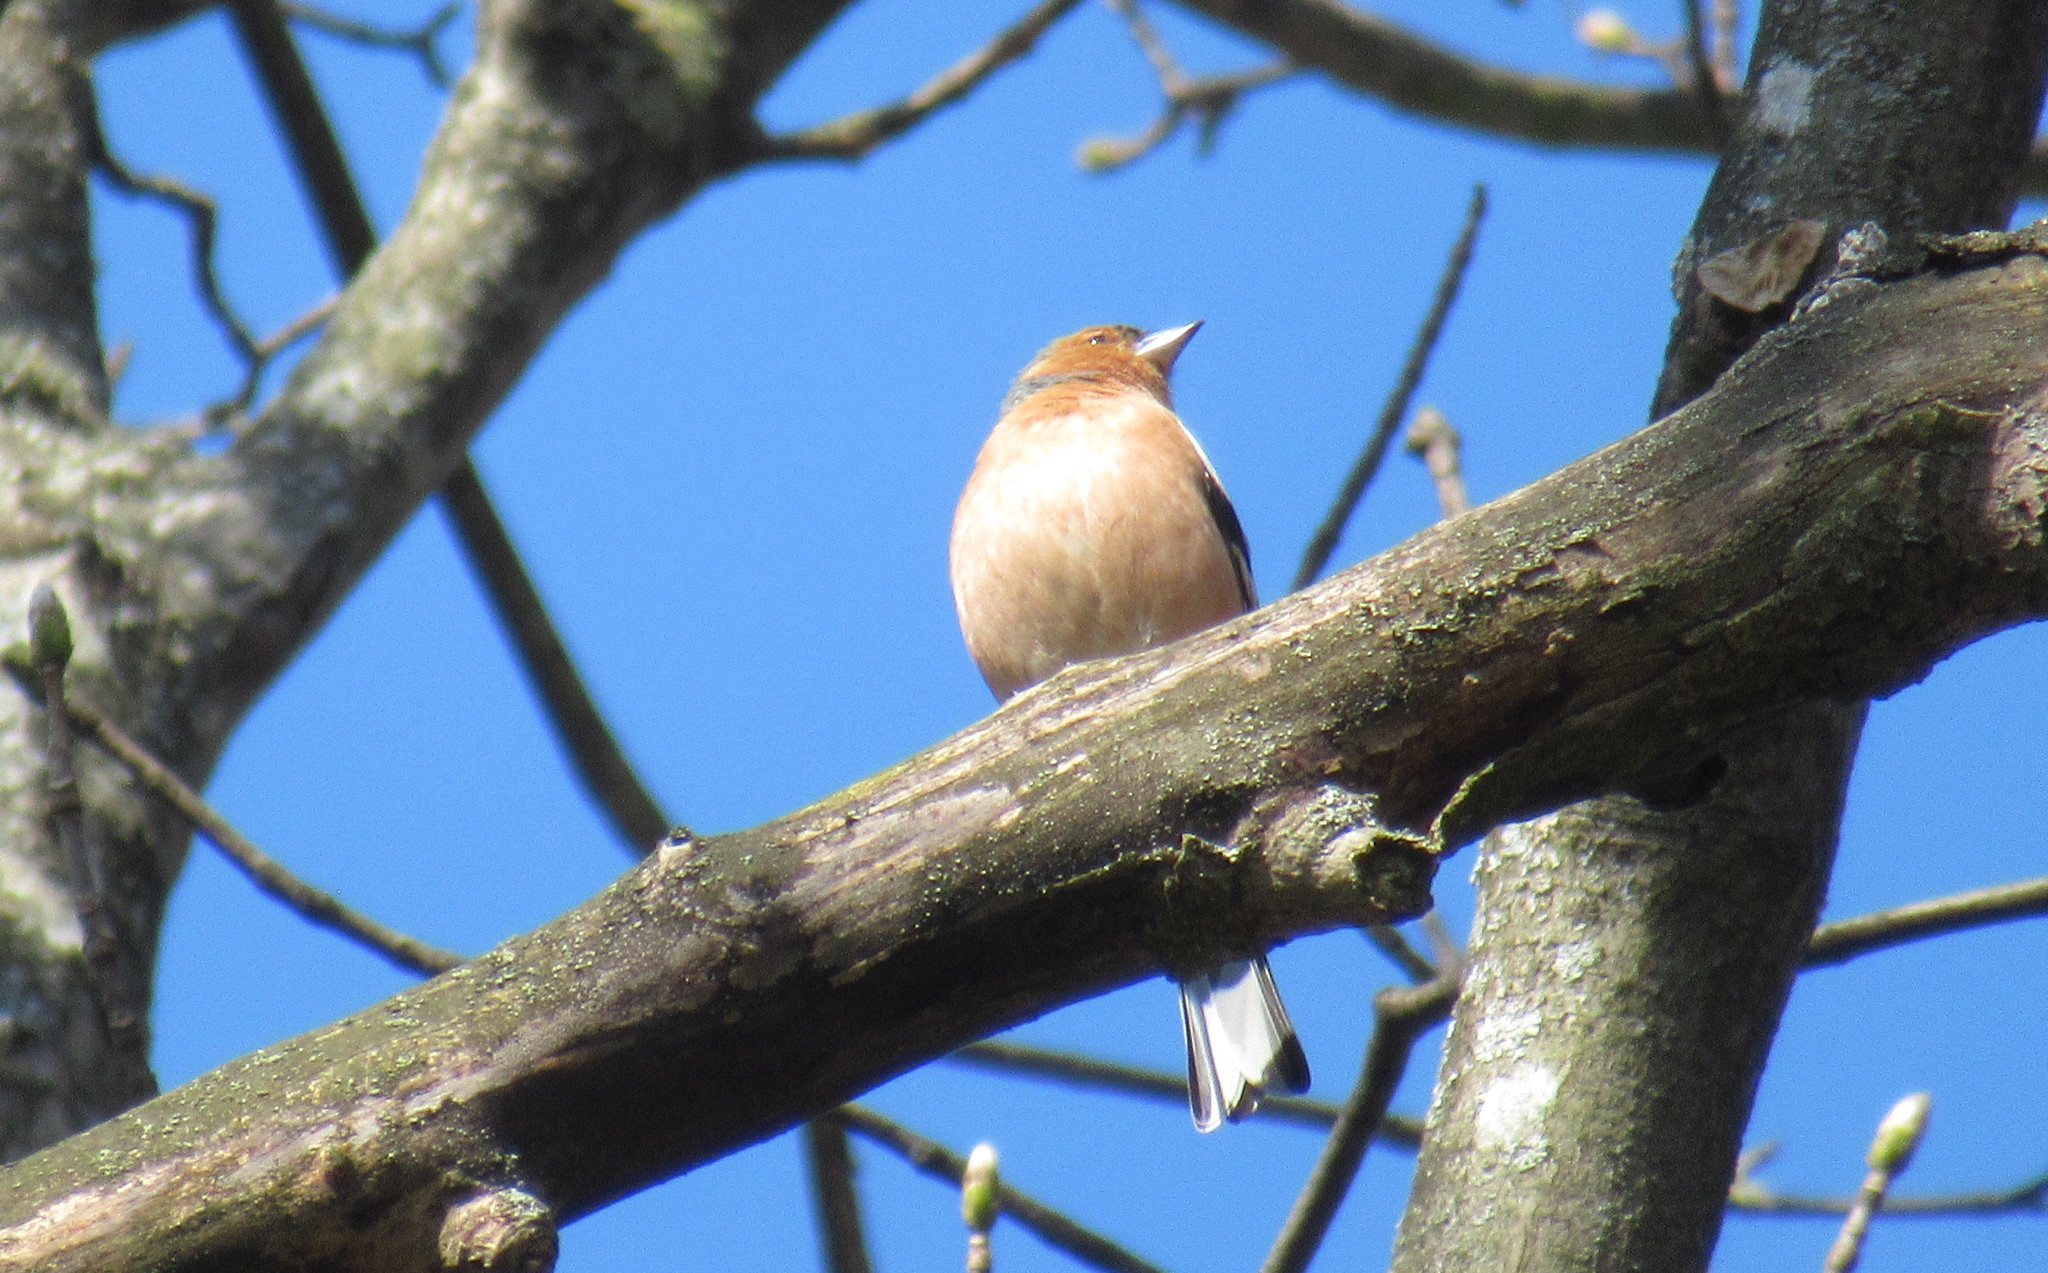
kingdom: Animalia
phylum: Chordata
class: Aves
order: Passeriformes
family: Fringillidae
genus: Fringilla
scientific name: Fringilla coelebs
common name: Common chaffinch
